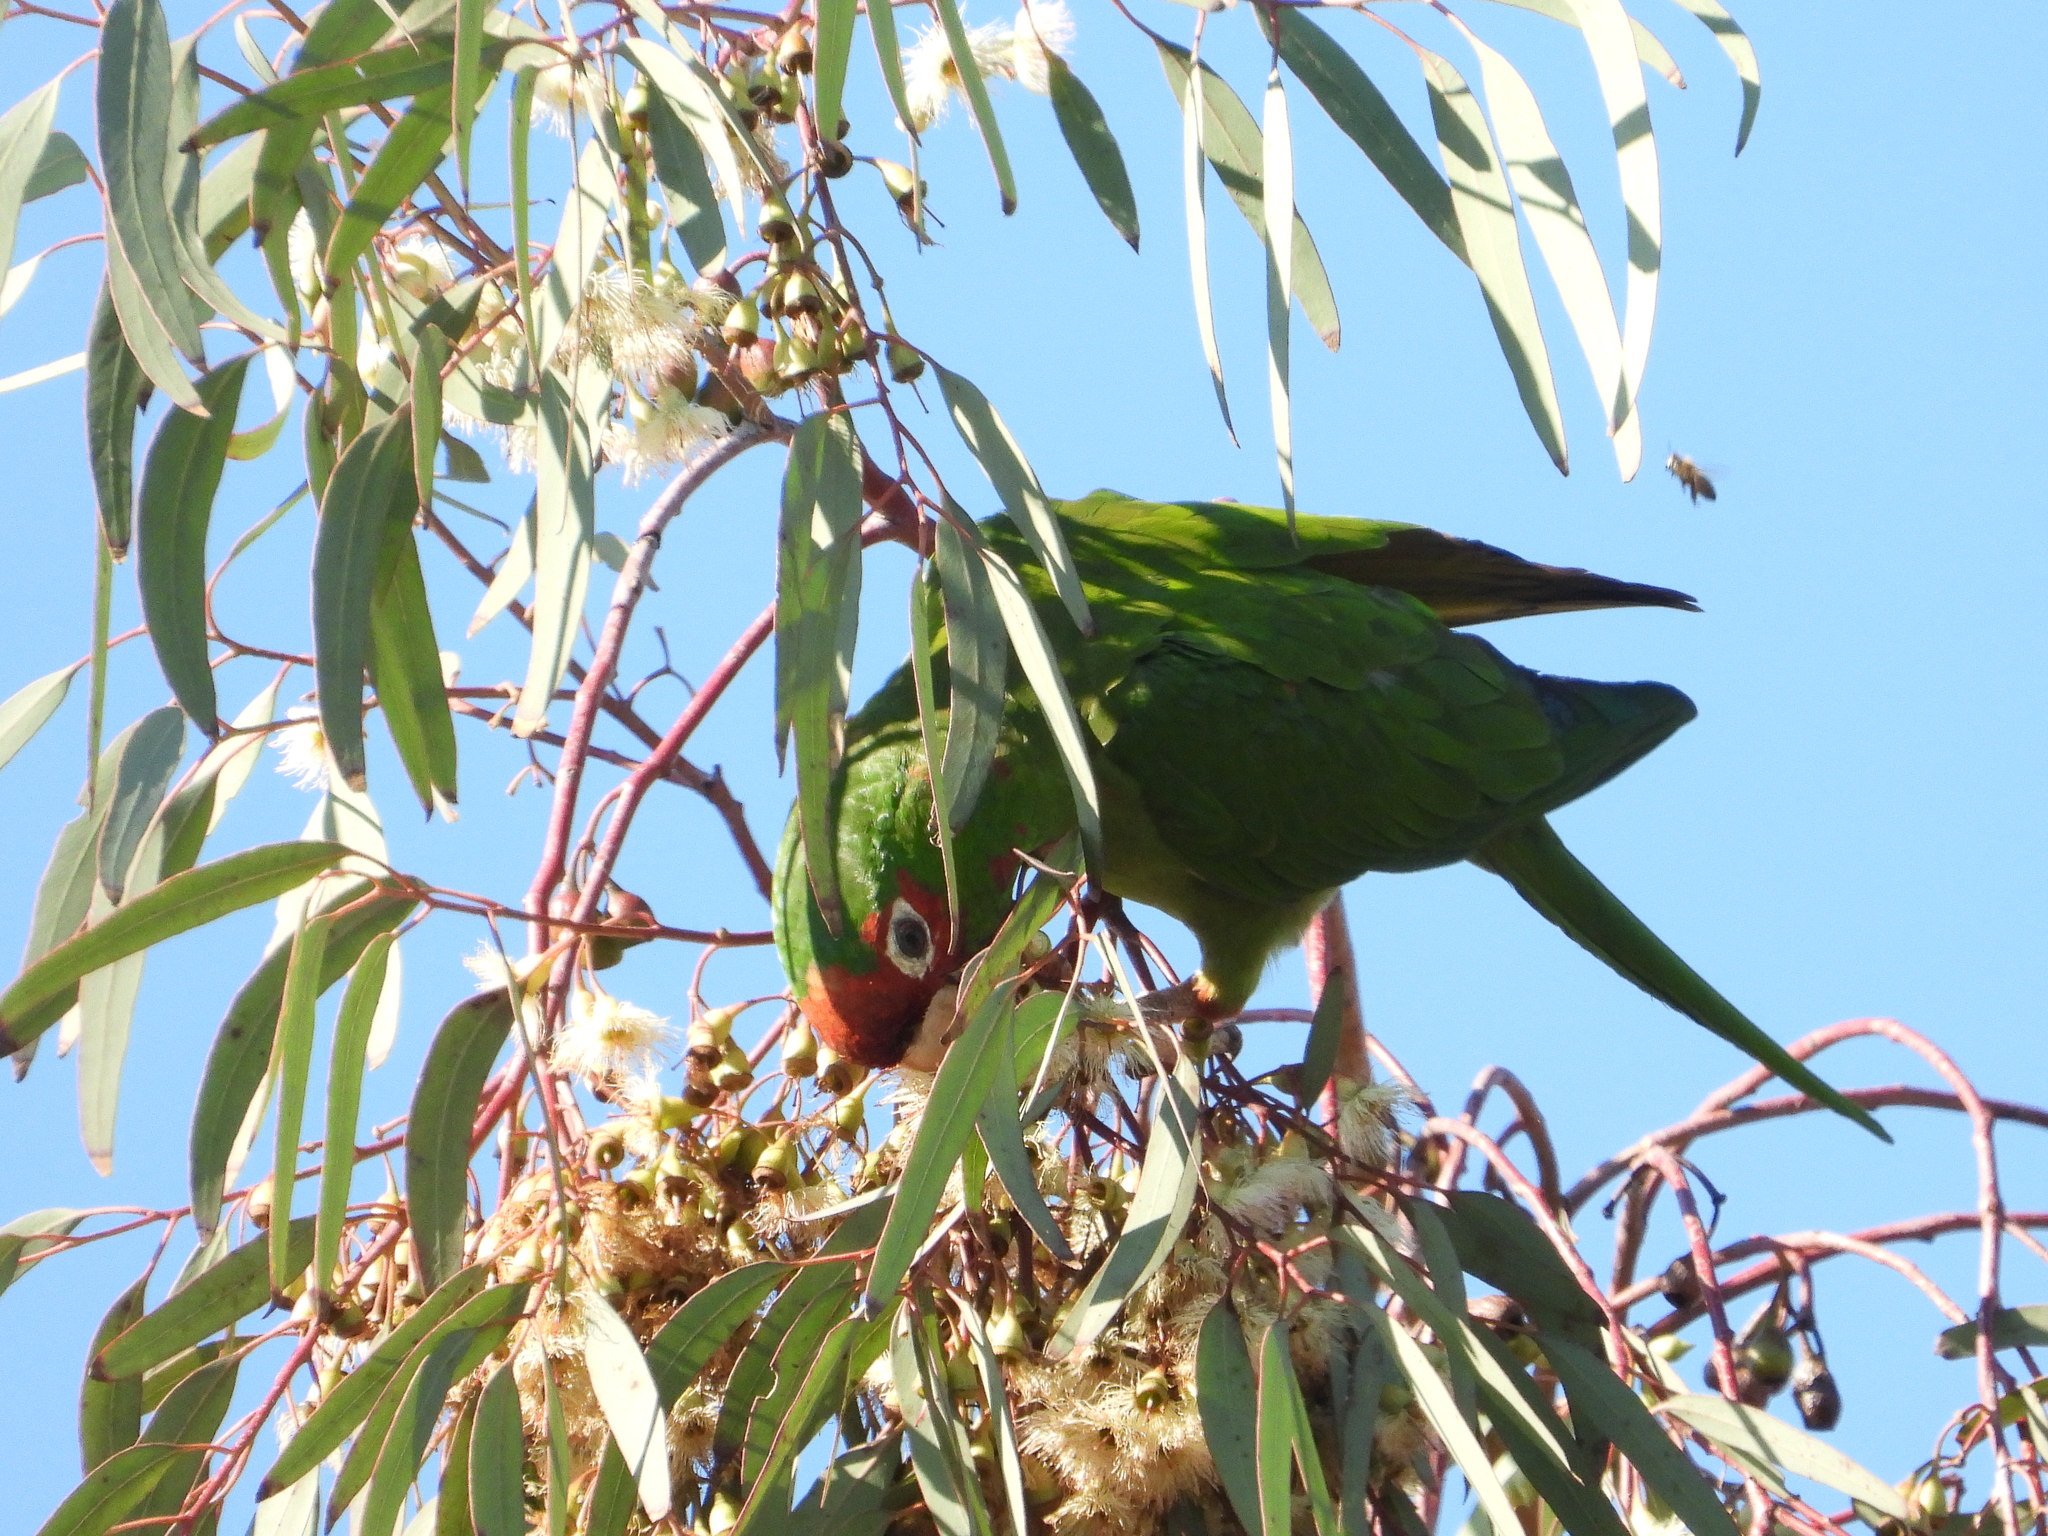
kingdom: Animalia
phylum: Chordata
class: Aves
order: Psittaciformes
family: Psittacidae
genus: Aratinga
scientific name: Aratinga mitrata
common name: Mitred parakeet
